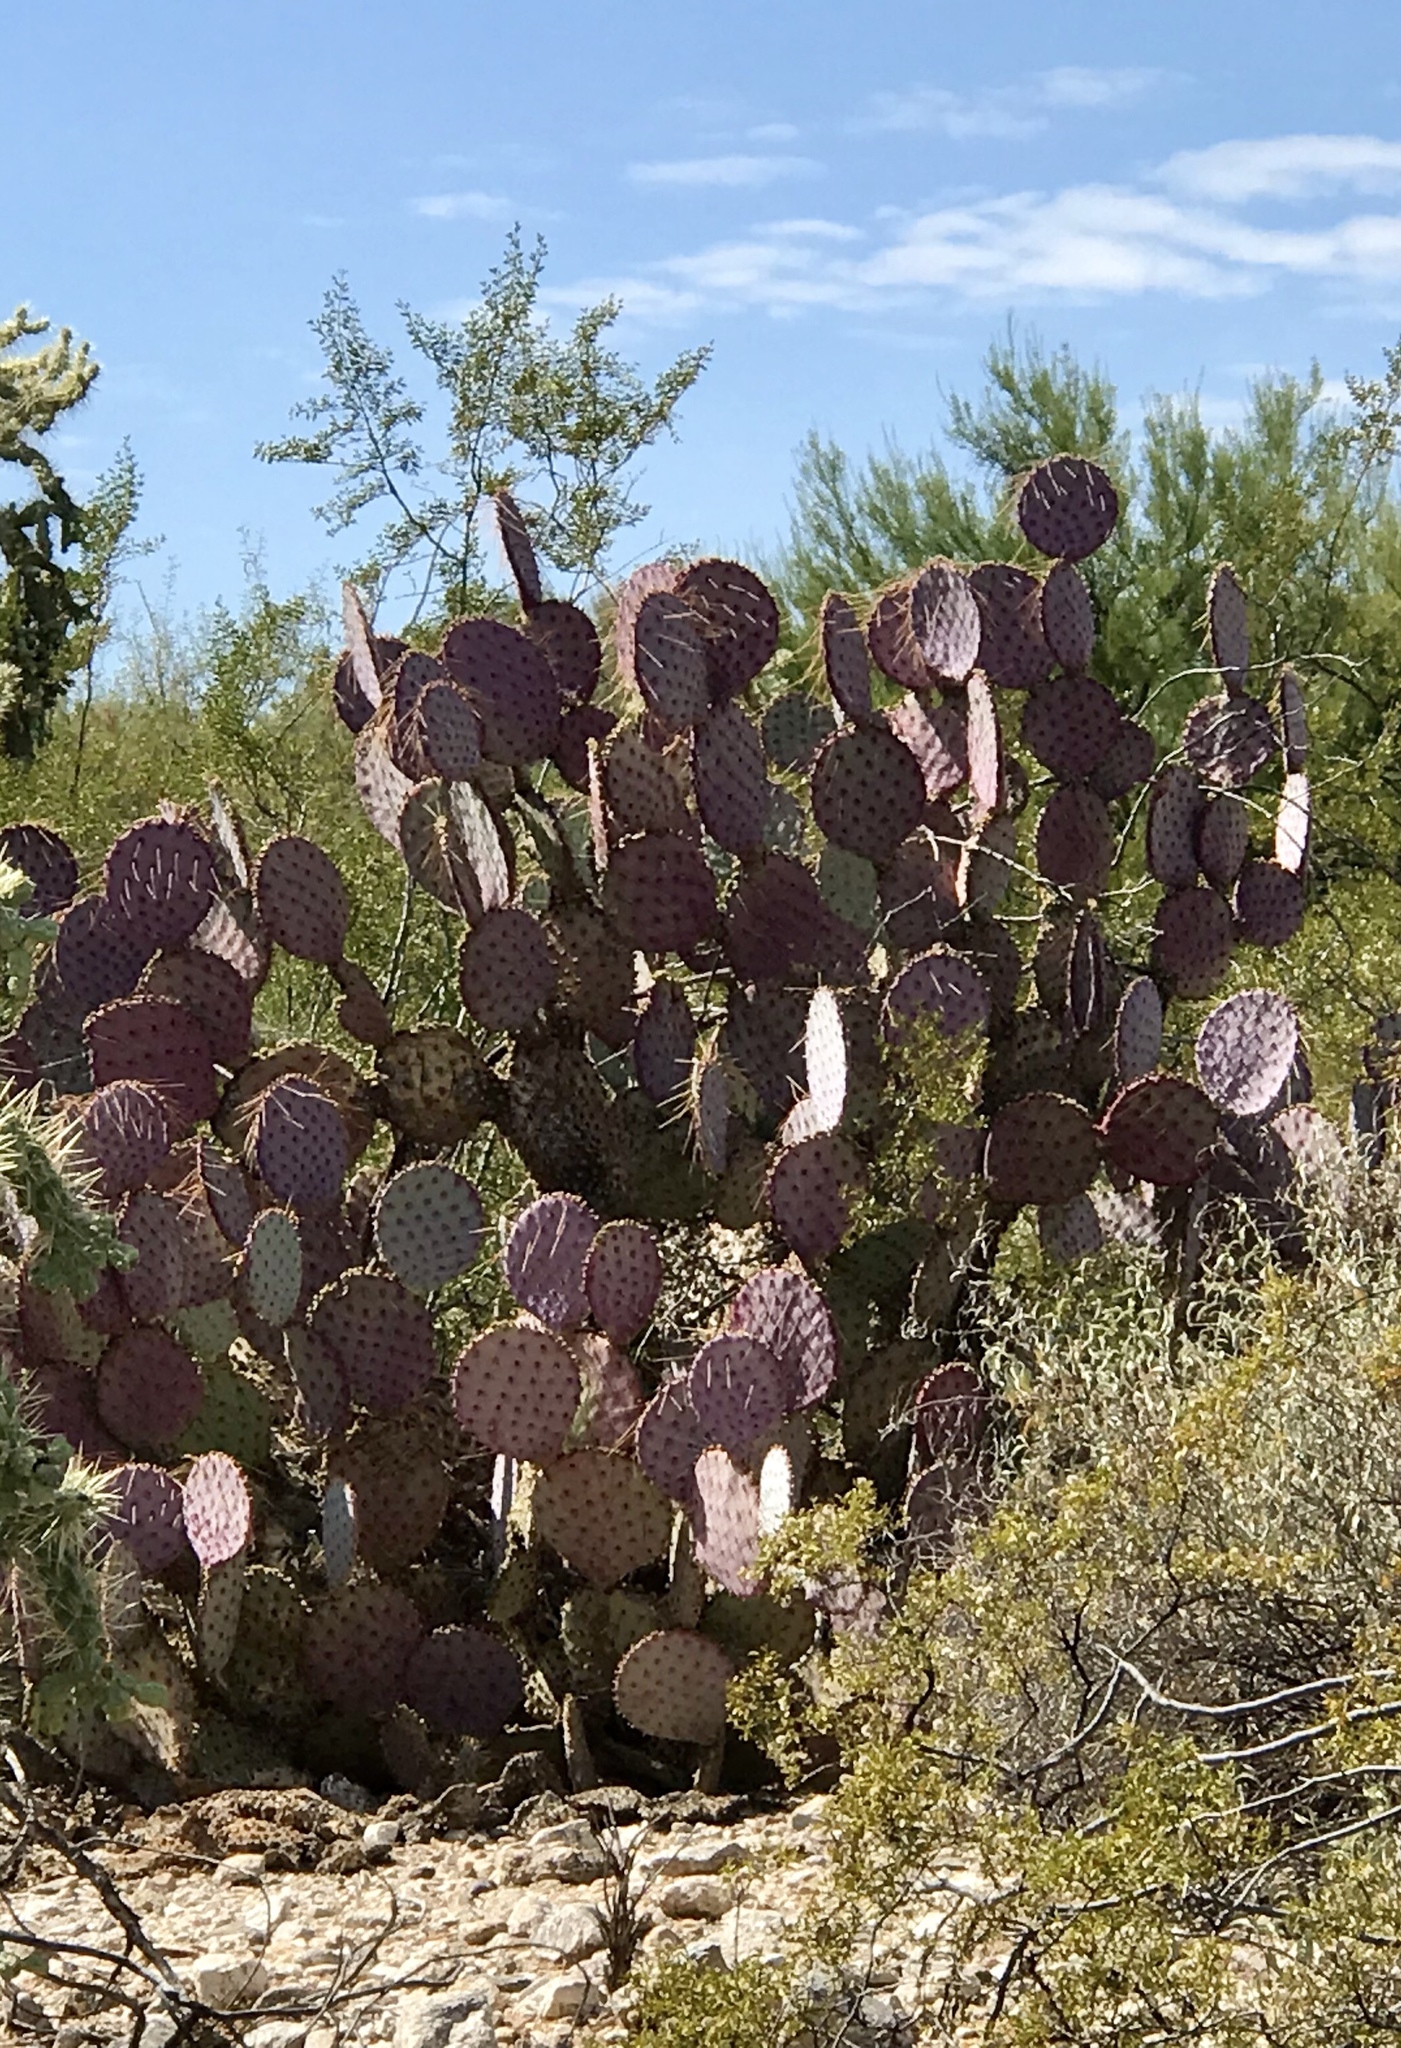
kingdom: Plantae
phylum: Tracheophyta
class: Magnoliopsida
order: Caryophyllales
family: Cactaceae
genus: Opuntia
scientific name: Opuntia gosseliniana
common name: Violet prickly-pear
